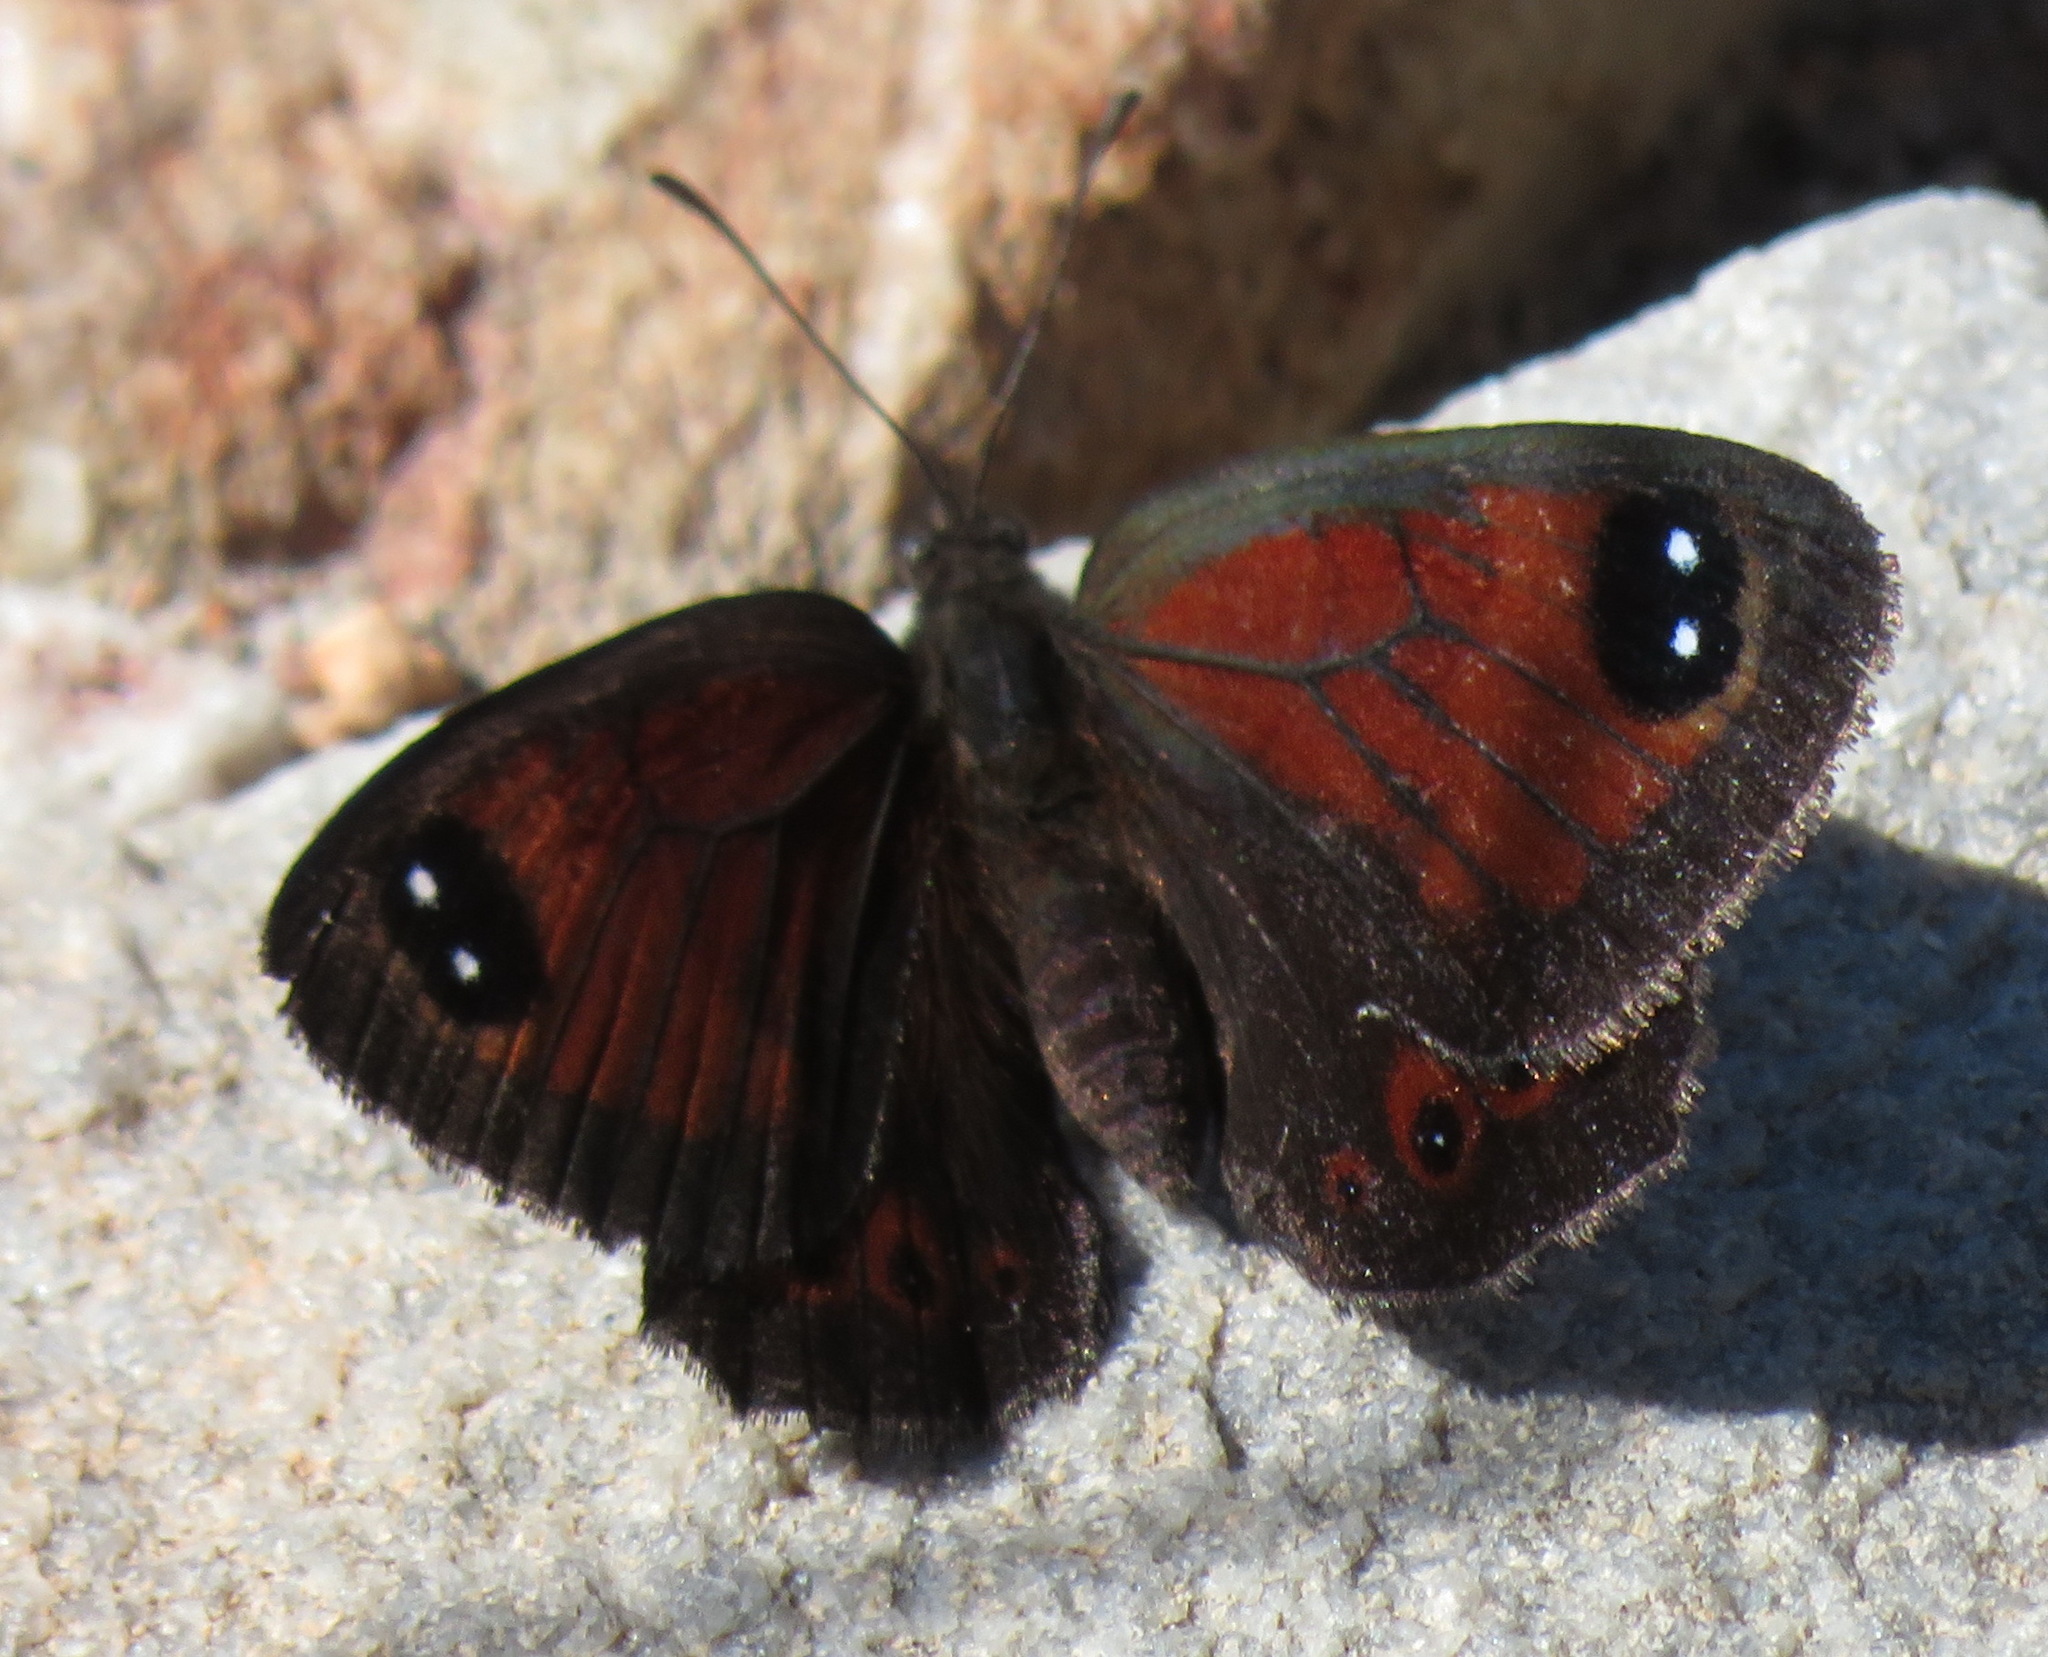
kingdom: Animalia
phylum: Arthropoda
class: Insecta
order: Lepidoptera
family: Nymphalidae
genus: Tarsocera
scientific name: Tarsocera fulvina
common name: Karoo widow
